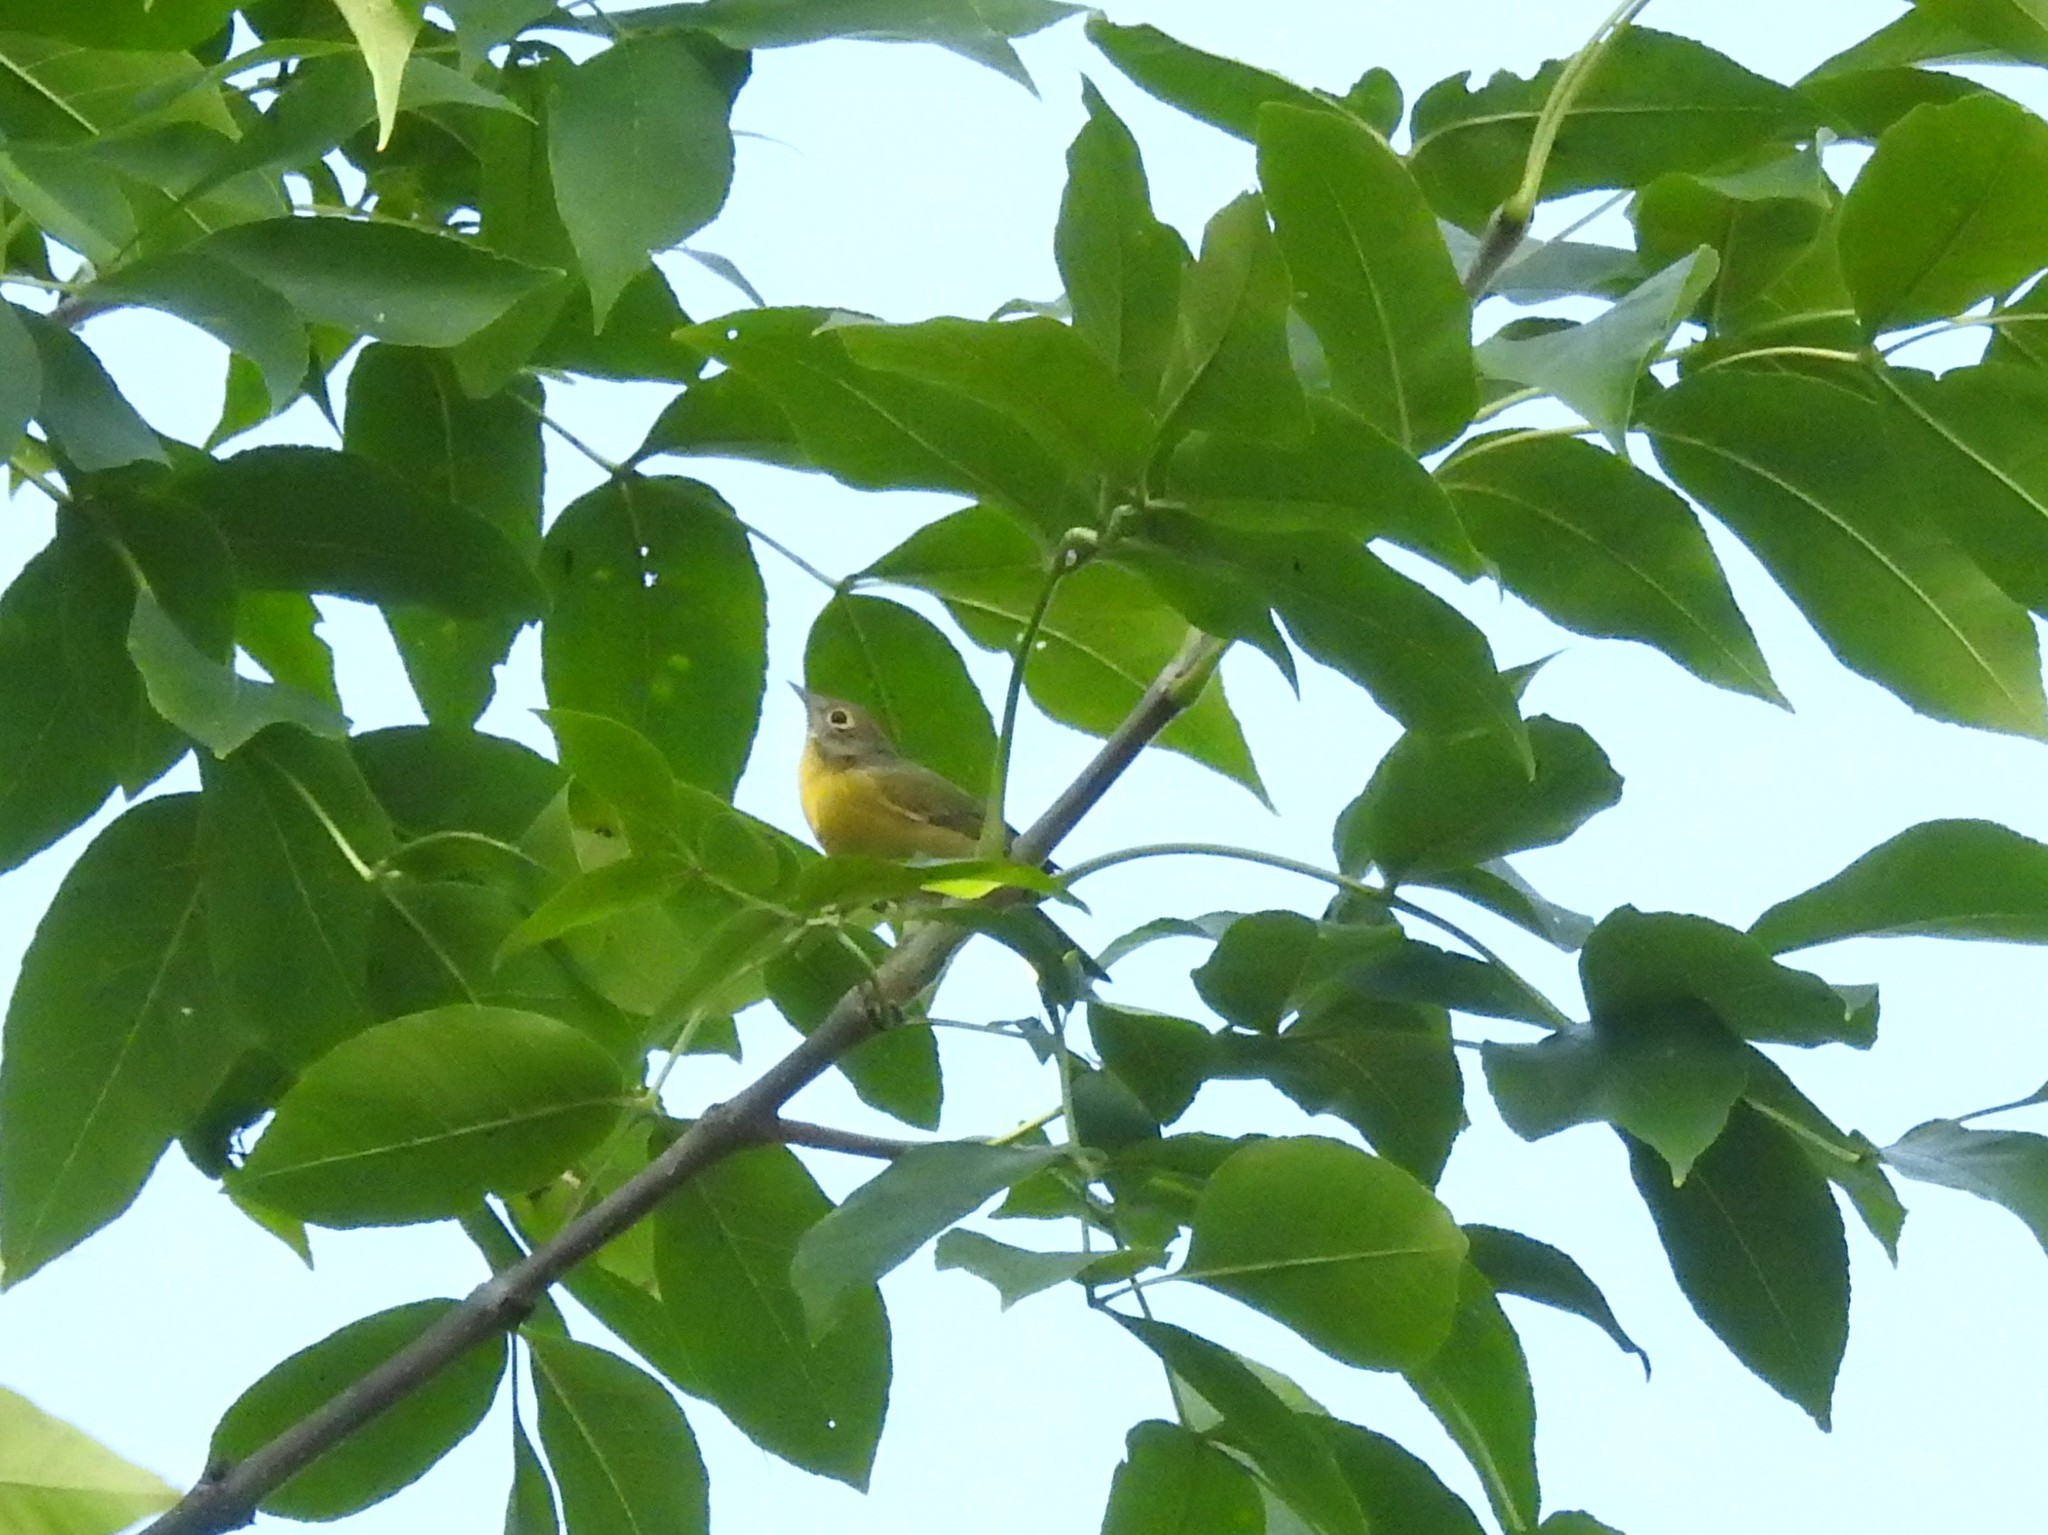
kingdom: Animalia
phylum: Chordata
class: Aves
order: Passeriformes
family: Parulidae
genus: Leiothlypis
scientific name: Leiothlypis ruficapilla
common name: Nashville warbler
